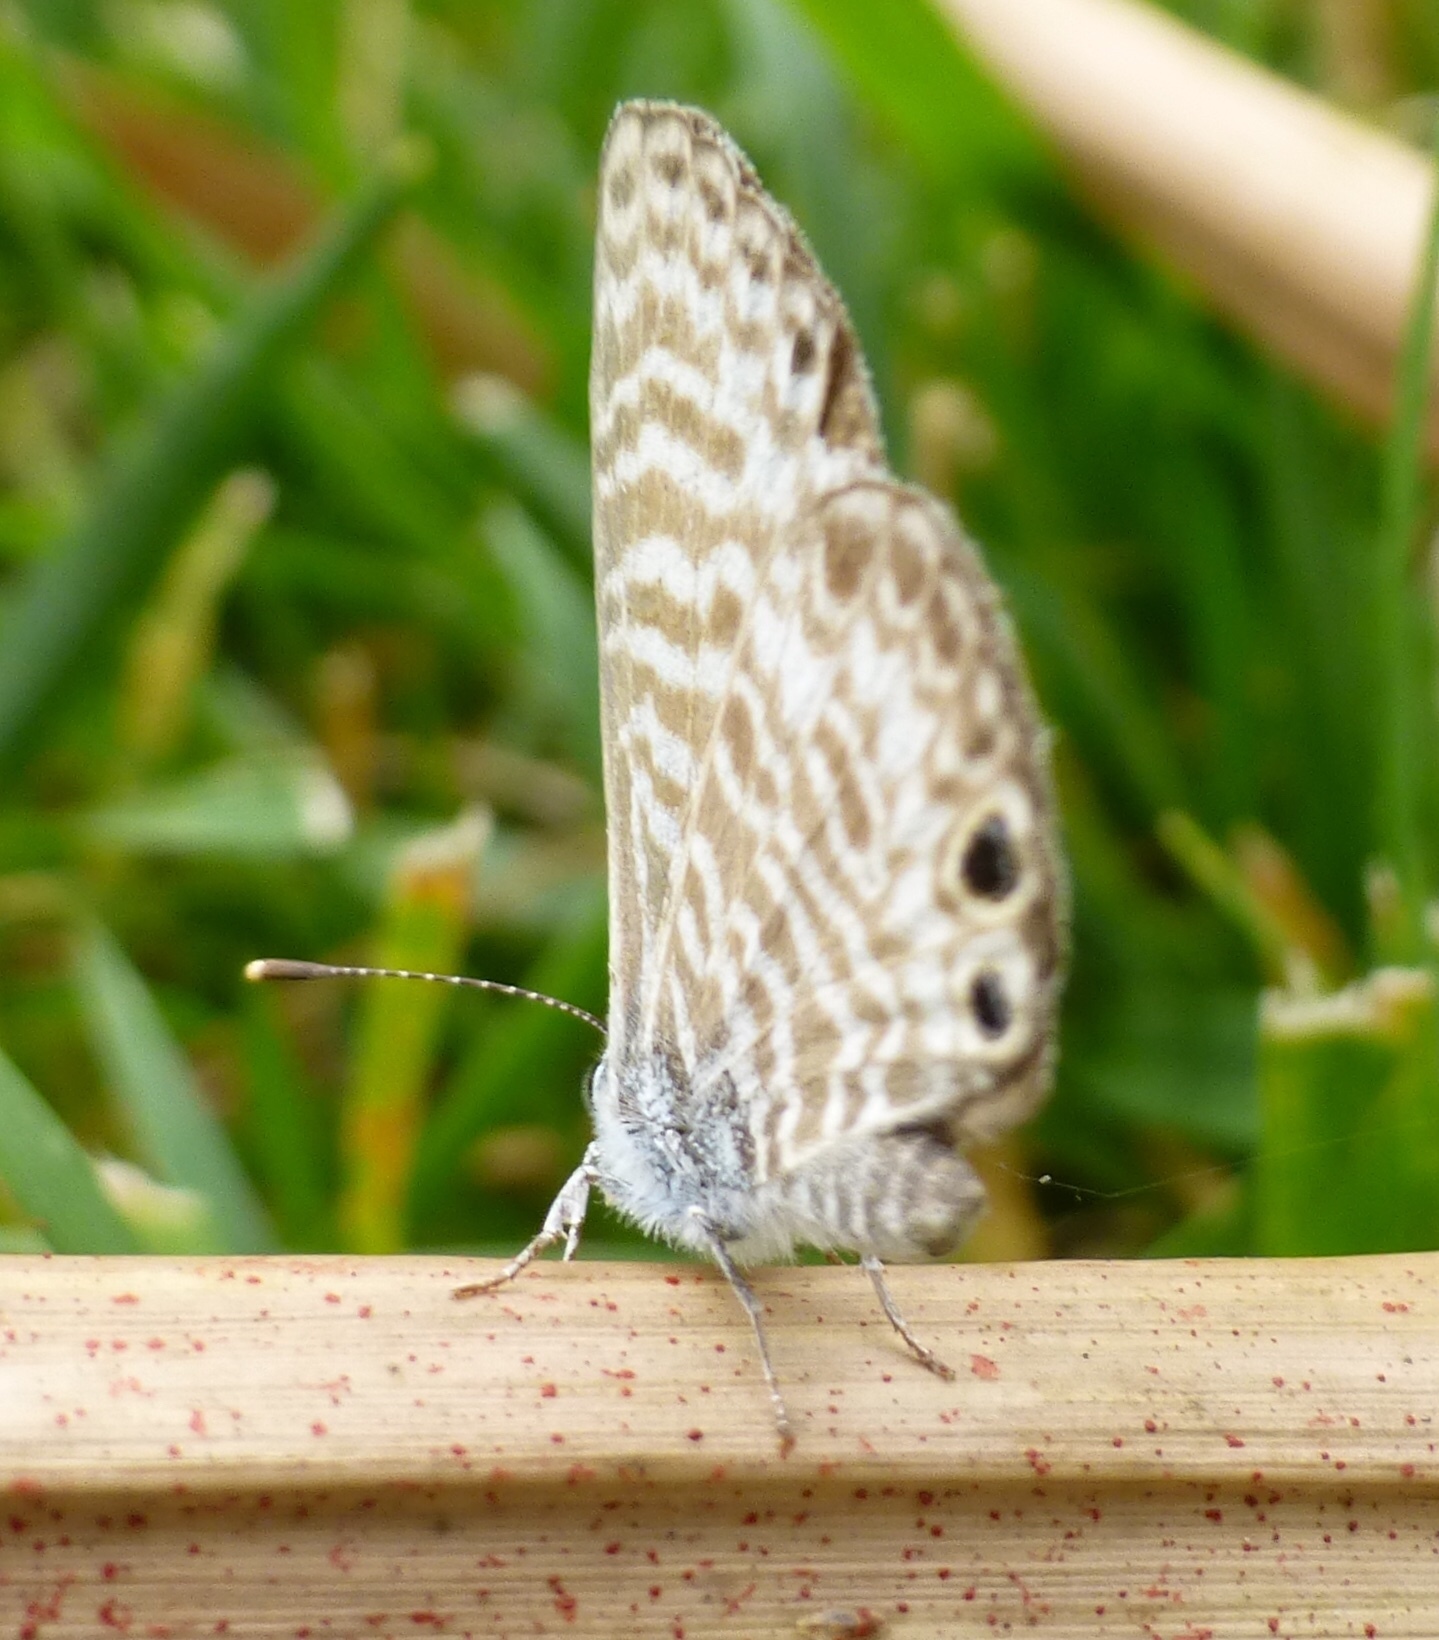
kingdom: Animalia
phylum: Arthropoda
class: Insecta
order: Lepidoptera
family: Lycaenidae
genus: Leptotes
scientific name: Leptotes marina
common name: Marine blue
